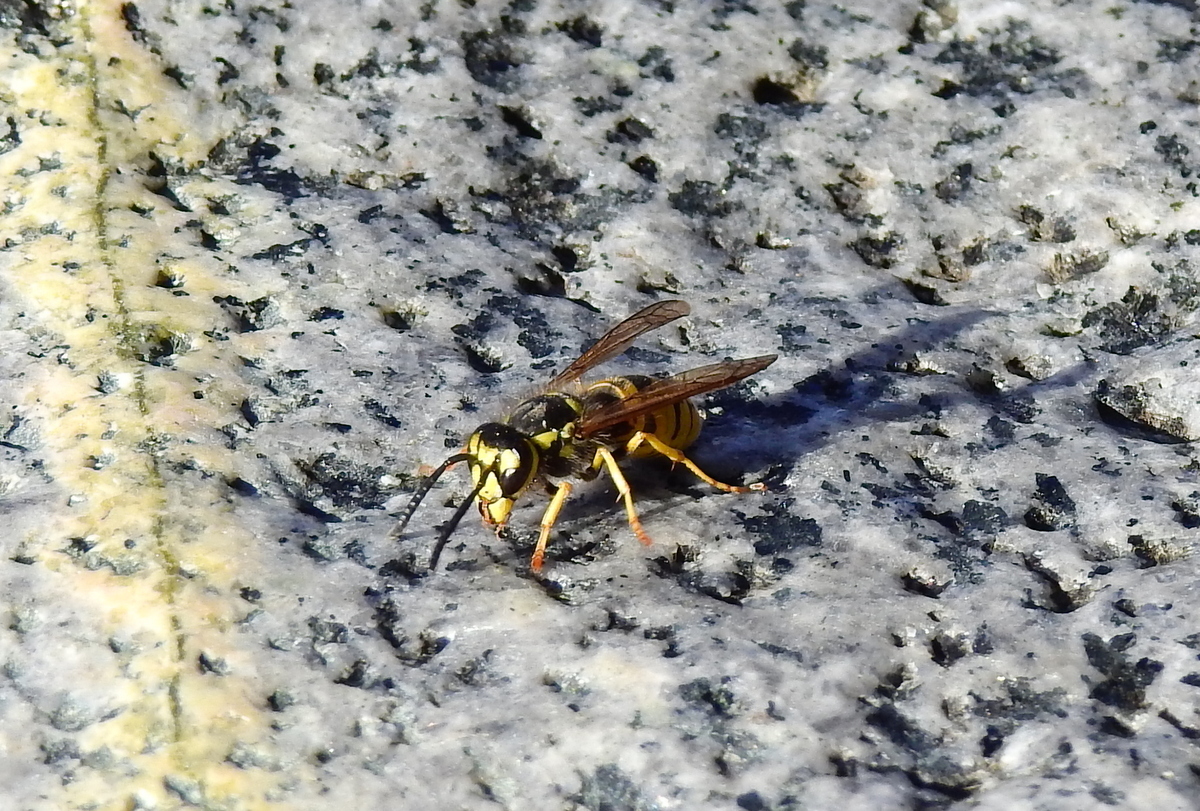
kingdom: Animalia
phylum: Arthropoda
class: Insecta
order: Hymenoptera
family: Vespidae
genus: Vespula
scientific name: Vespula germanica
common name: German wasp
